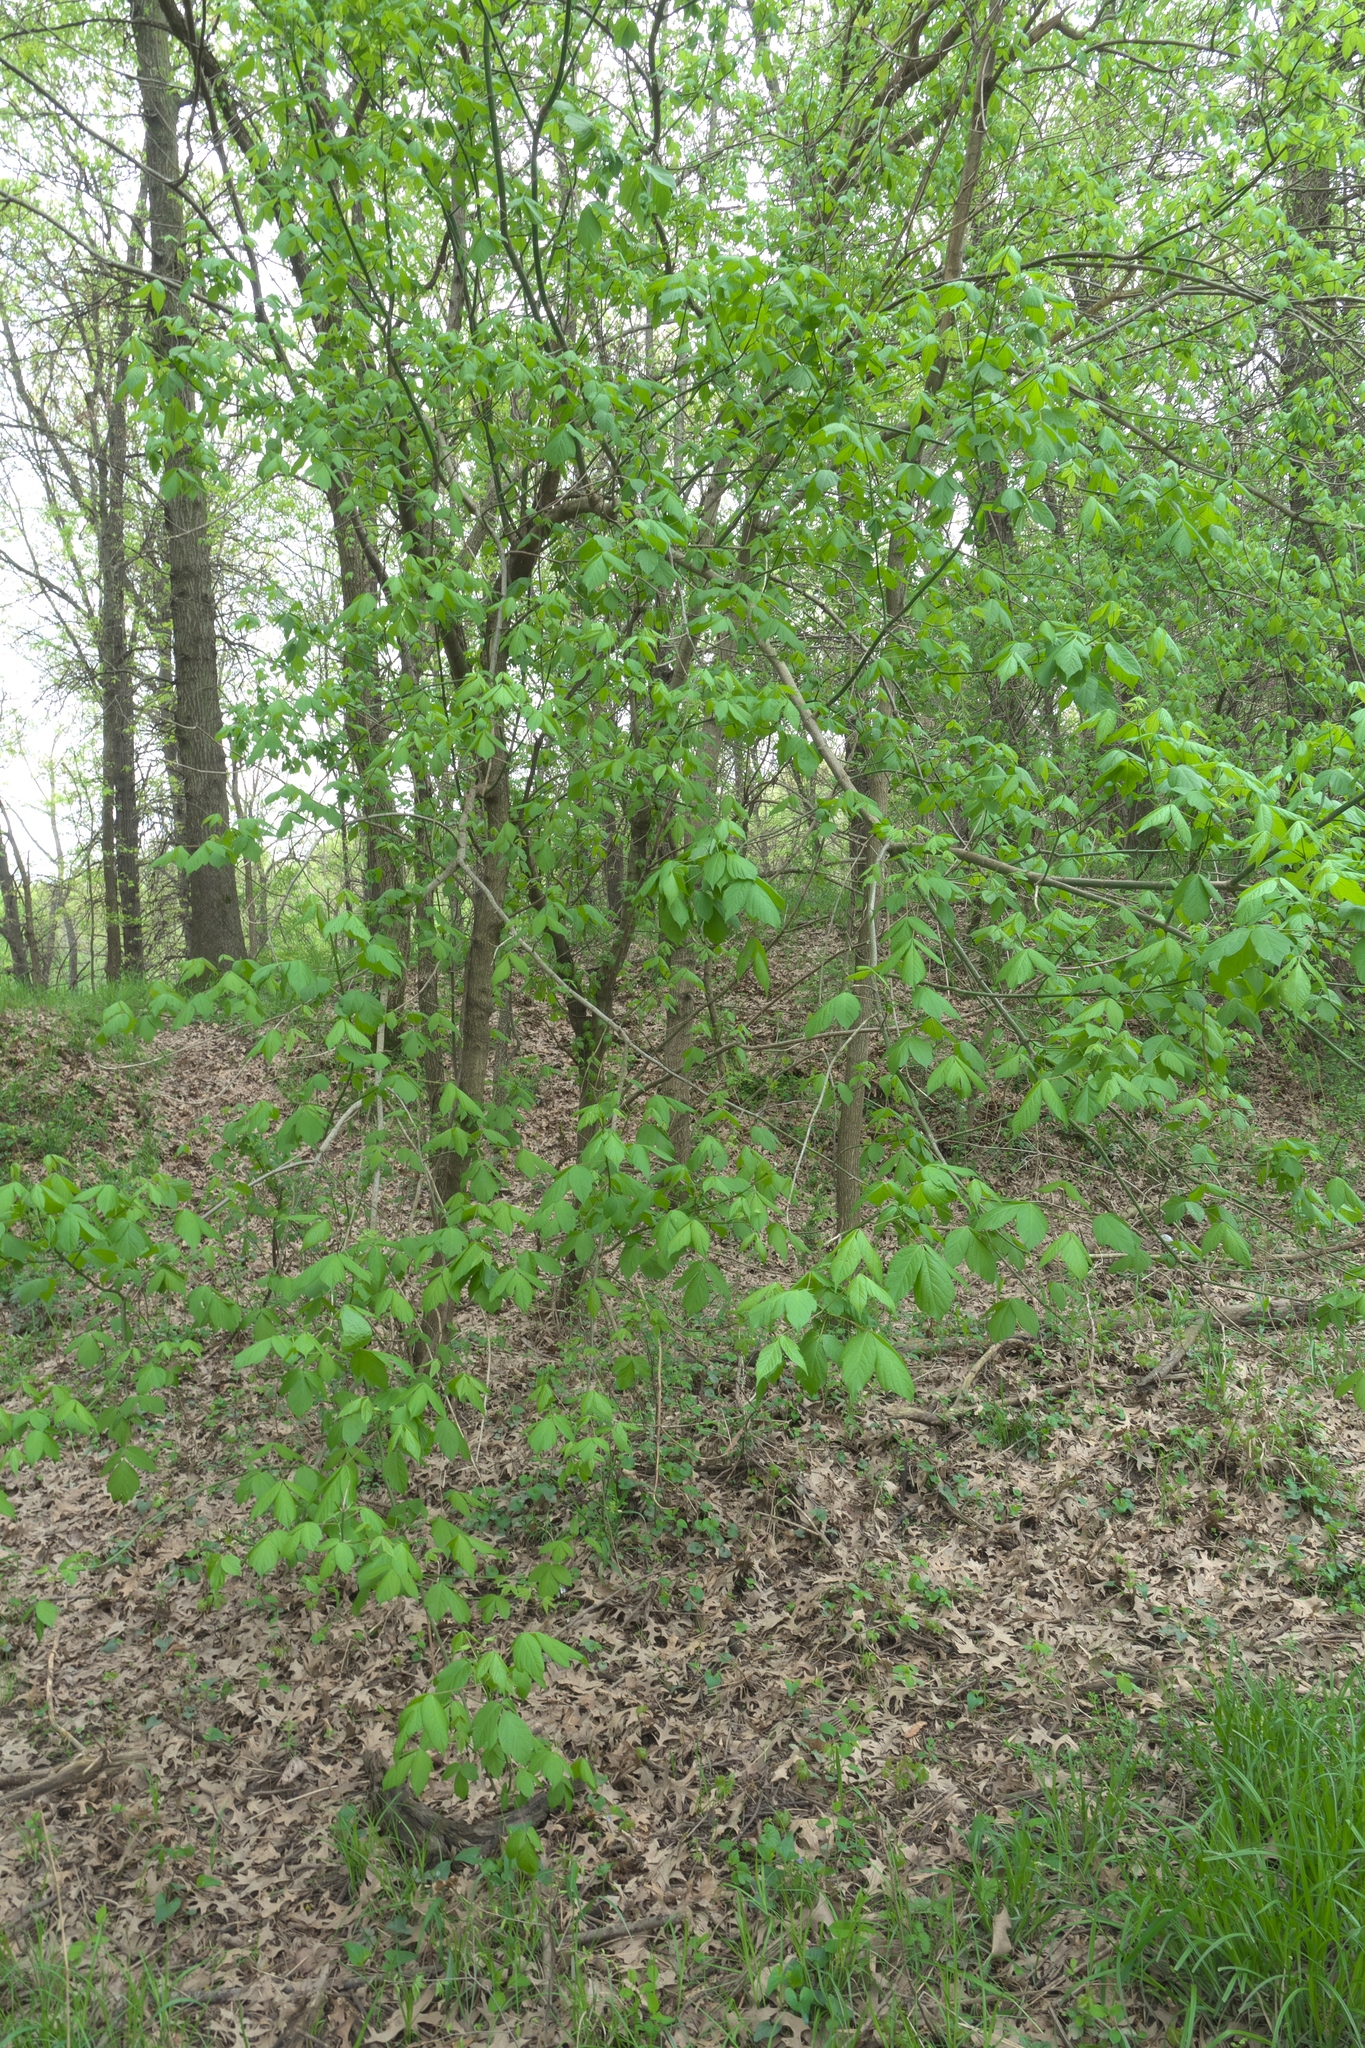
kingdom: Plantae
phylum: Tracheophyta
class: Magnoliopsida
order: Sapindales
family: Sapindaceae
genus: Acer
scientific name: Acer negundo
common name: Ashleaf maple
